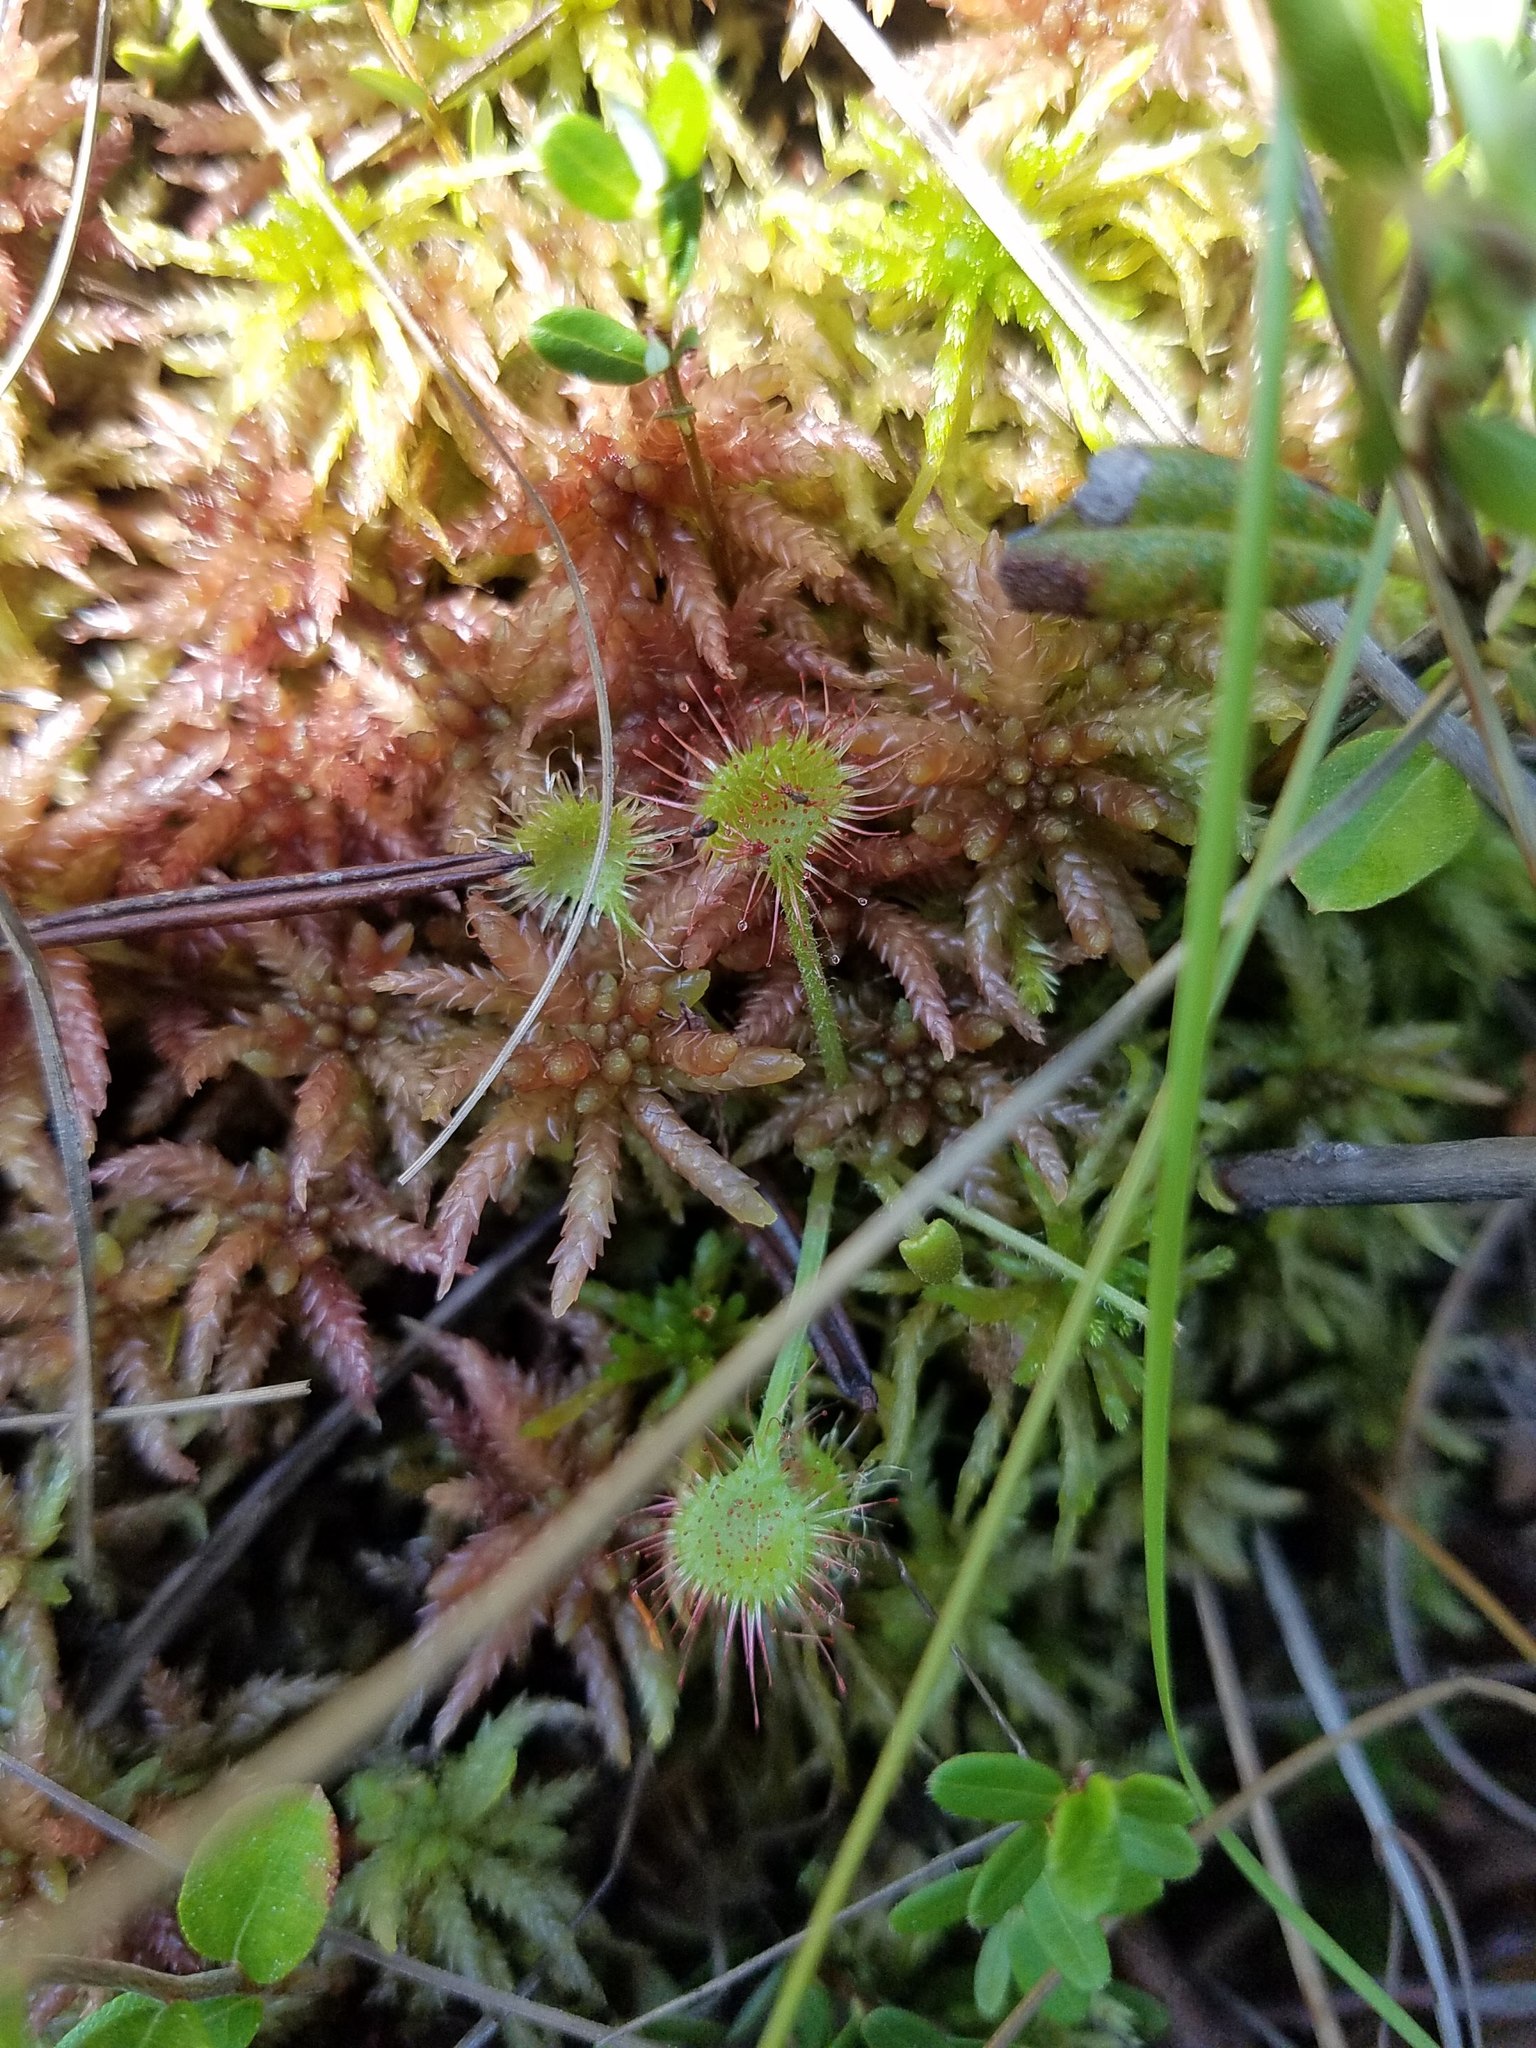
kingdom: Plantae
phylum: Tracheophyta
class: Magnoliopsida
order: Caryophyllales
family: Droseraceae
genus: Drosera
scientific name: Drosera rotundifolia
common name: Round-leaved sundew
